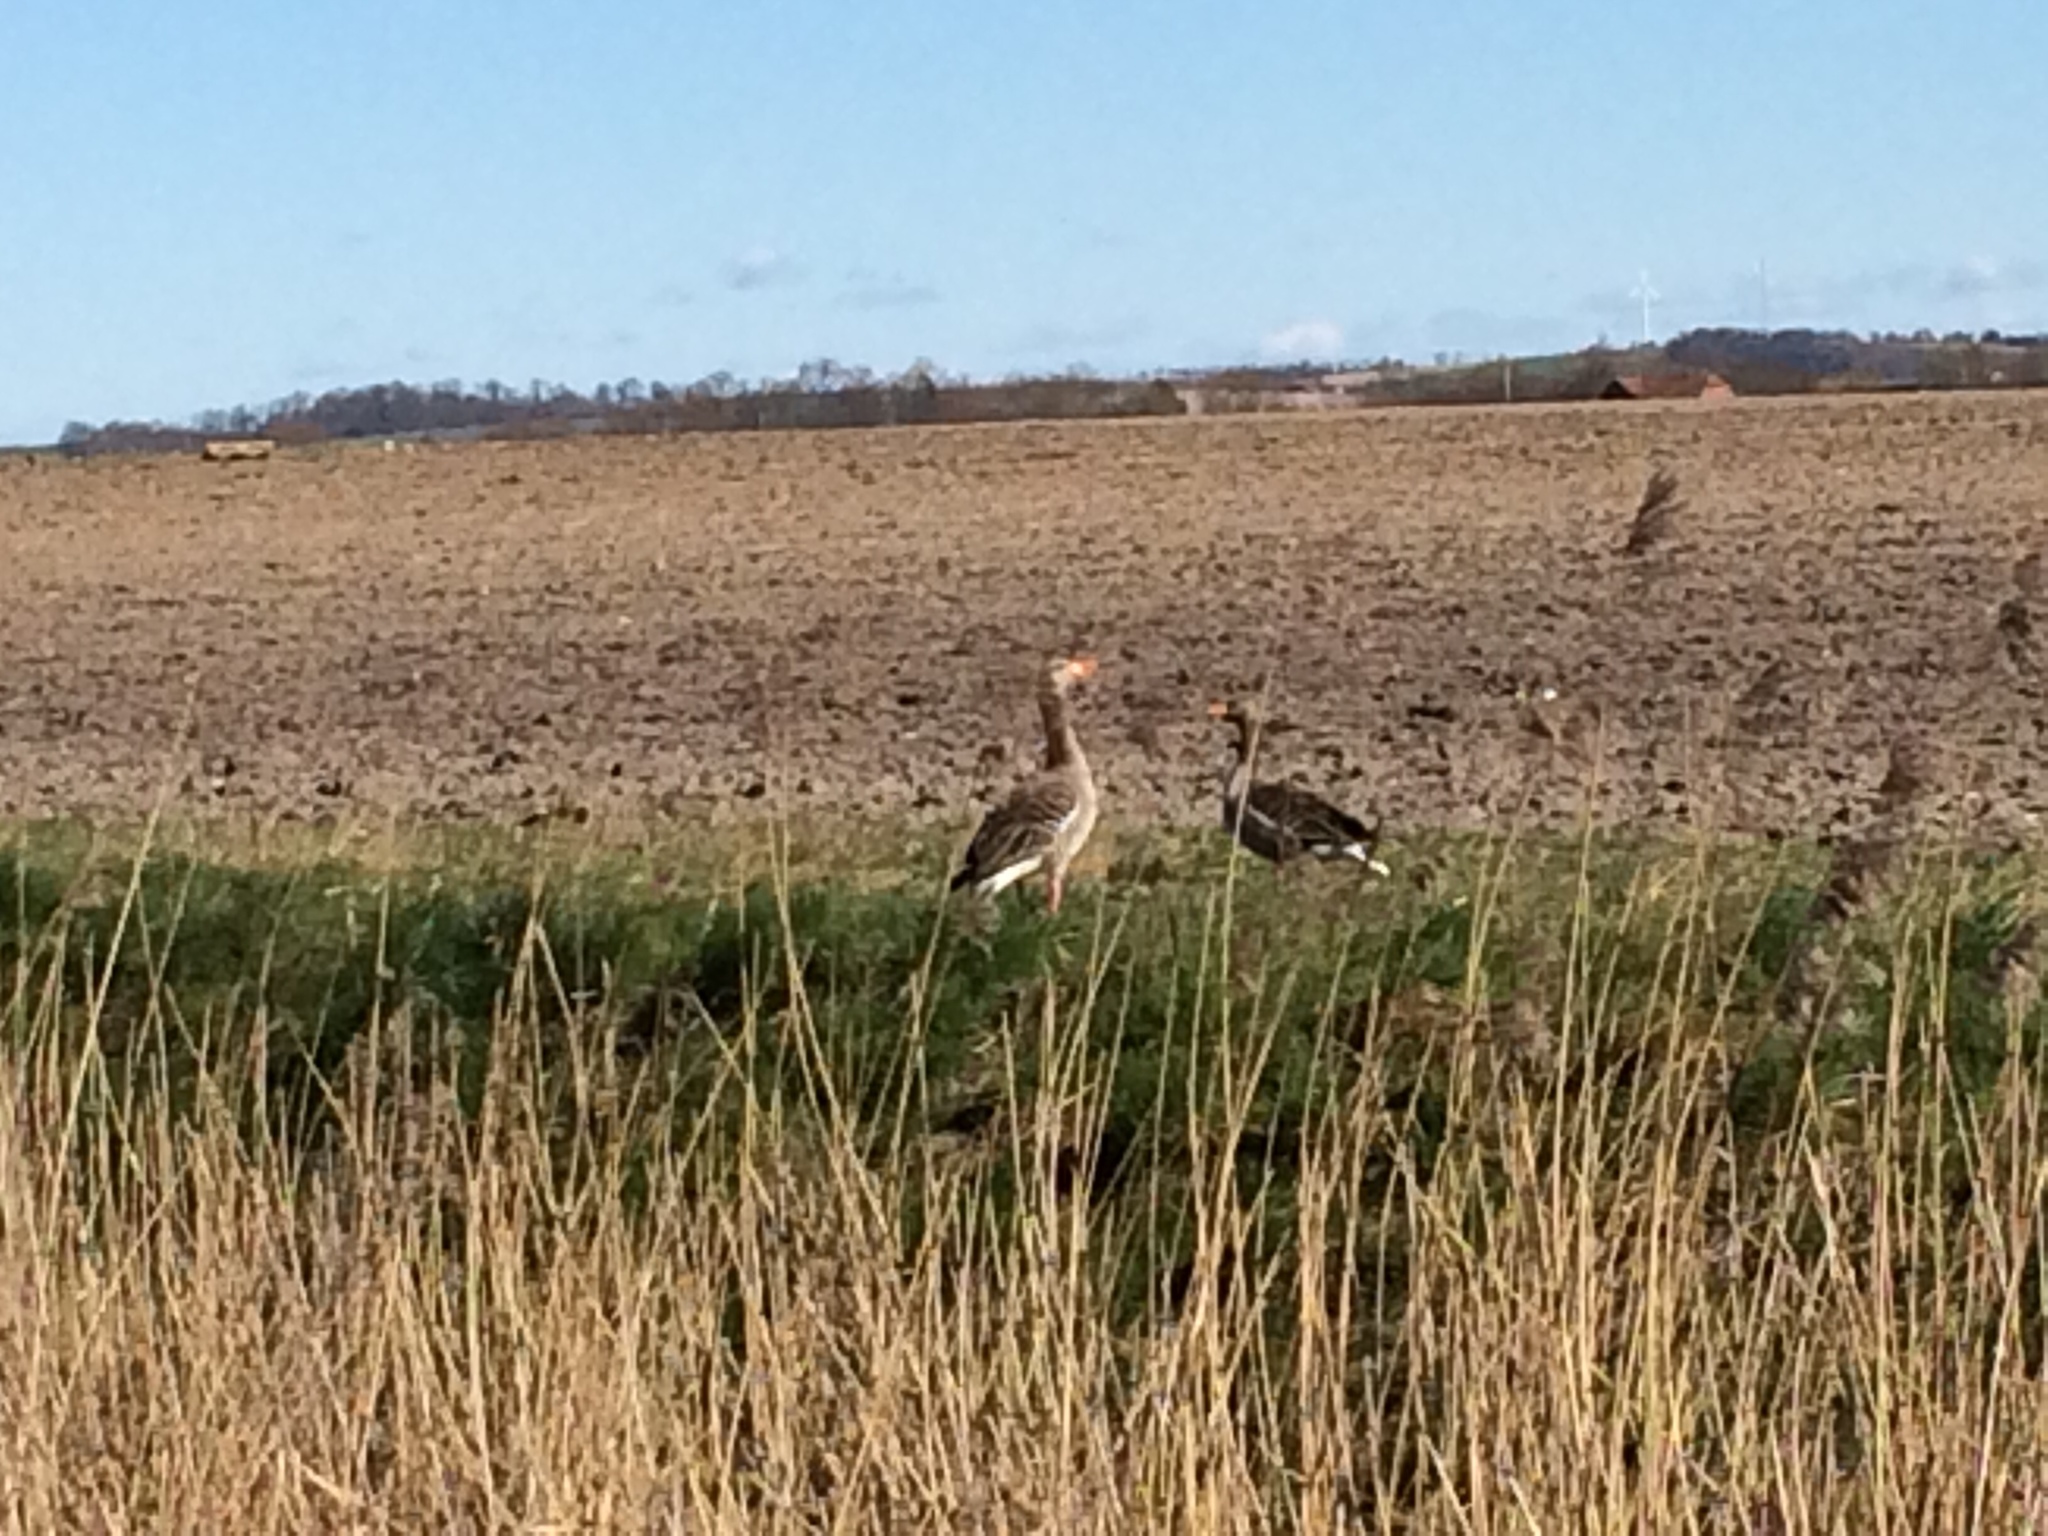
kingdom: Animalia
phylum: Chordata
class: Aves
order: Anseriformes
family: Anatidae
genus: Anser
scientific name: Anser anser
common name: Greylag goose
